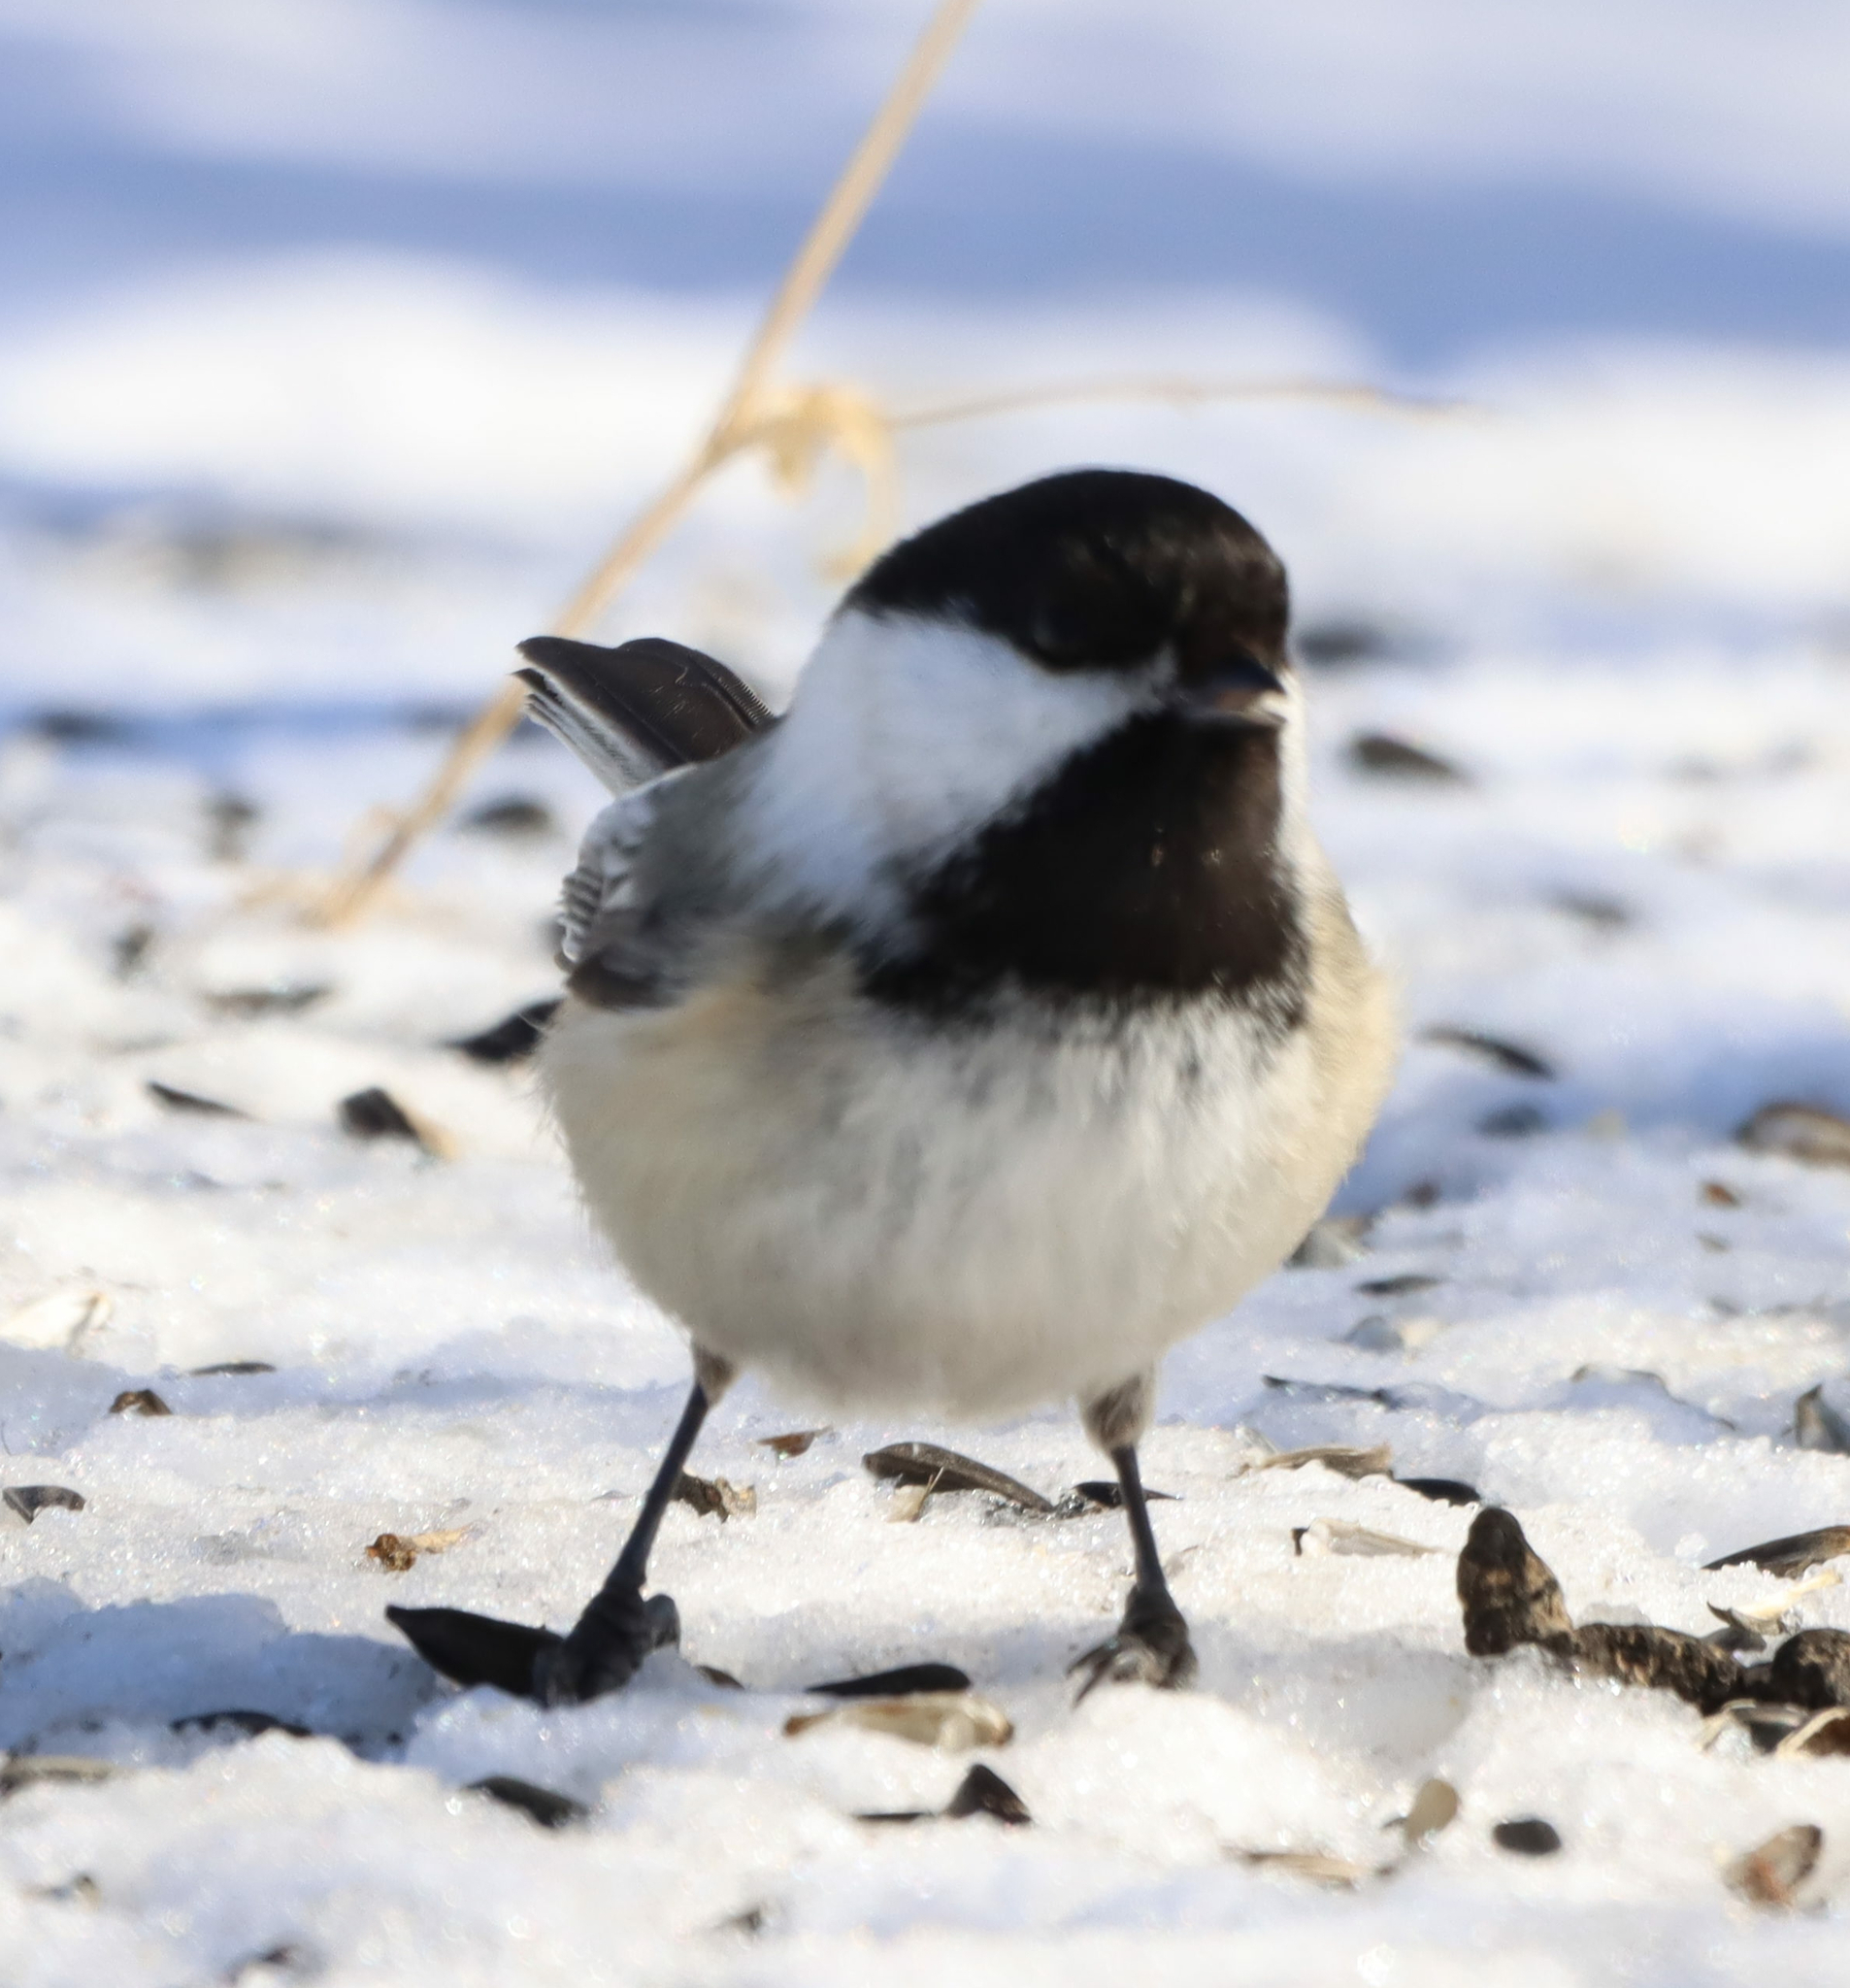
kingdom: Animalia
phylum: Chordata
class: Aves
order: Passeriformes
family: Paridae
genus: Poecile
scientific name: Poecile atricapillus
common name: Black-capped chickadee
